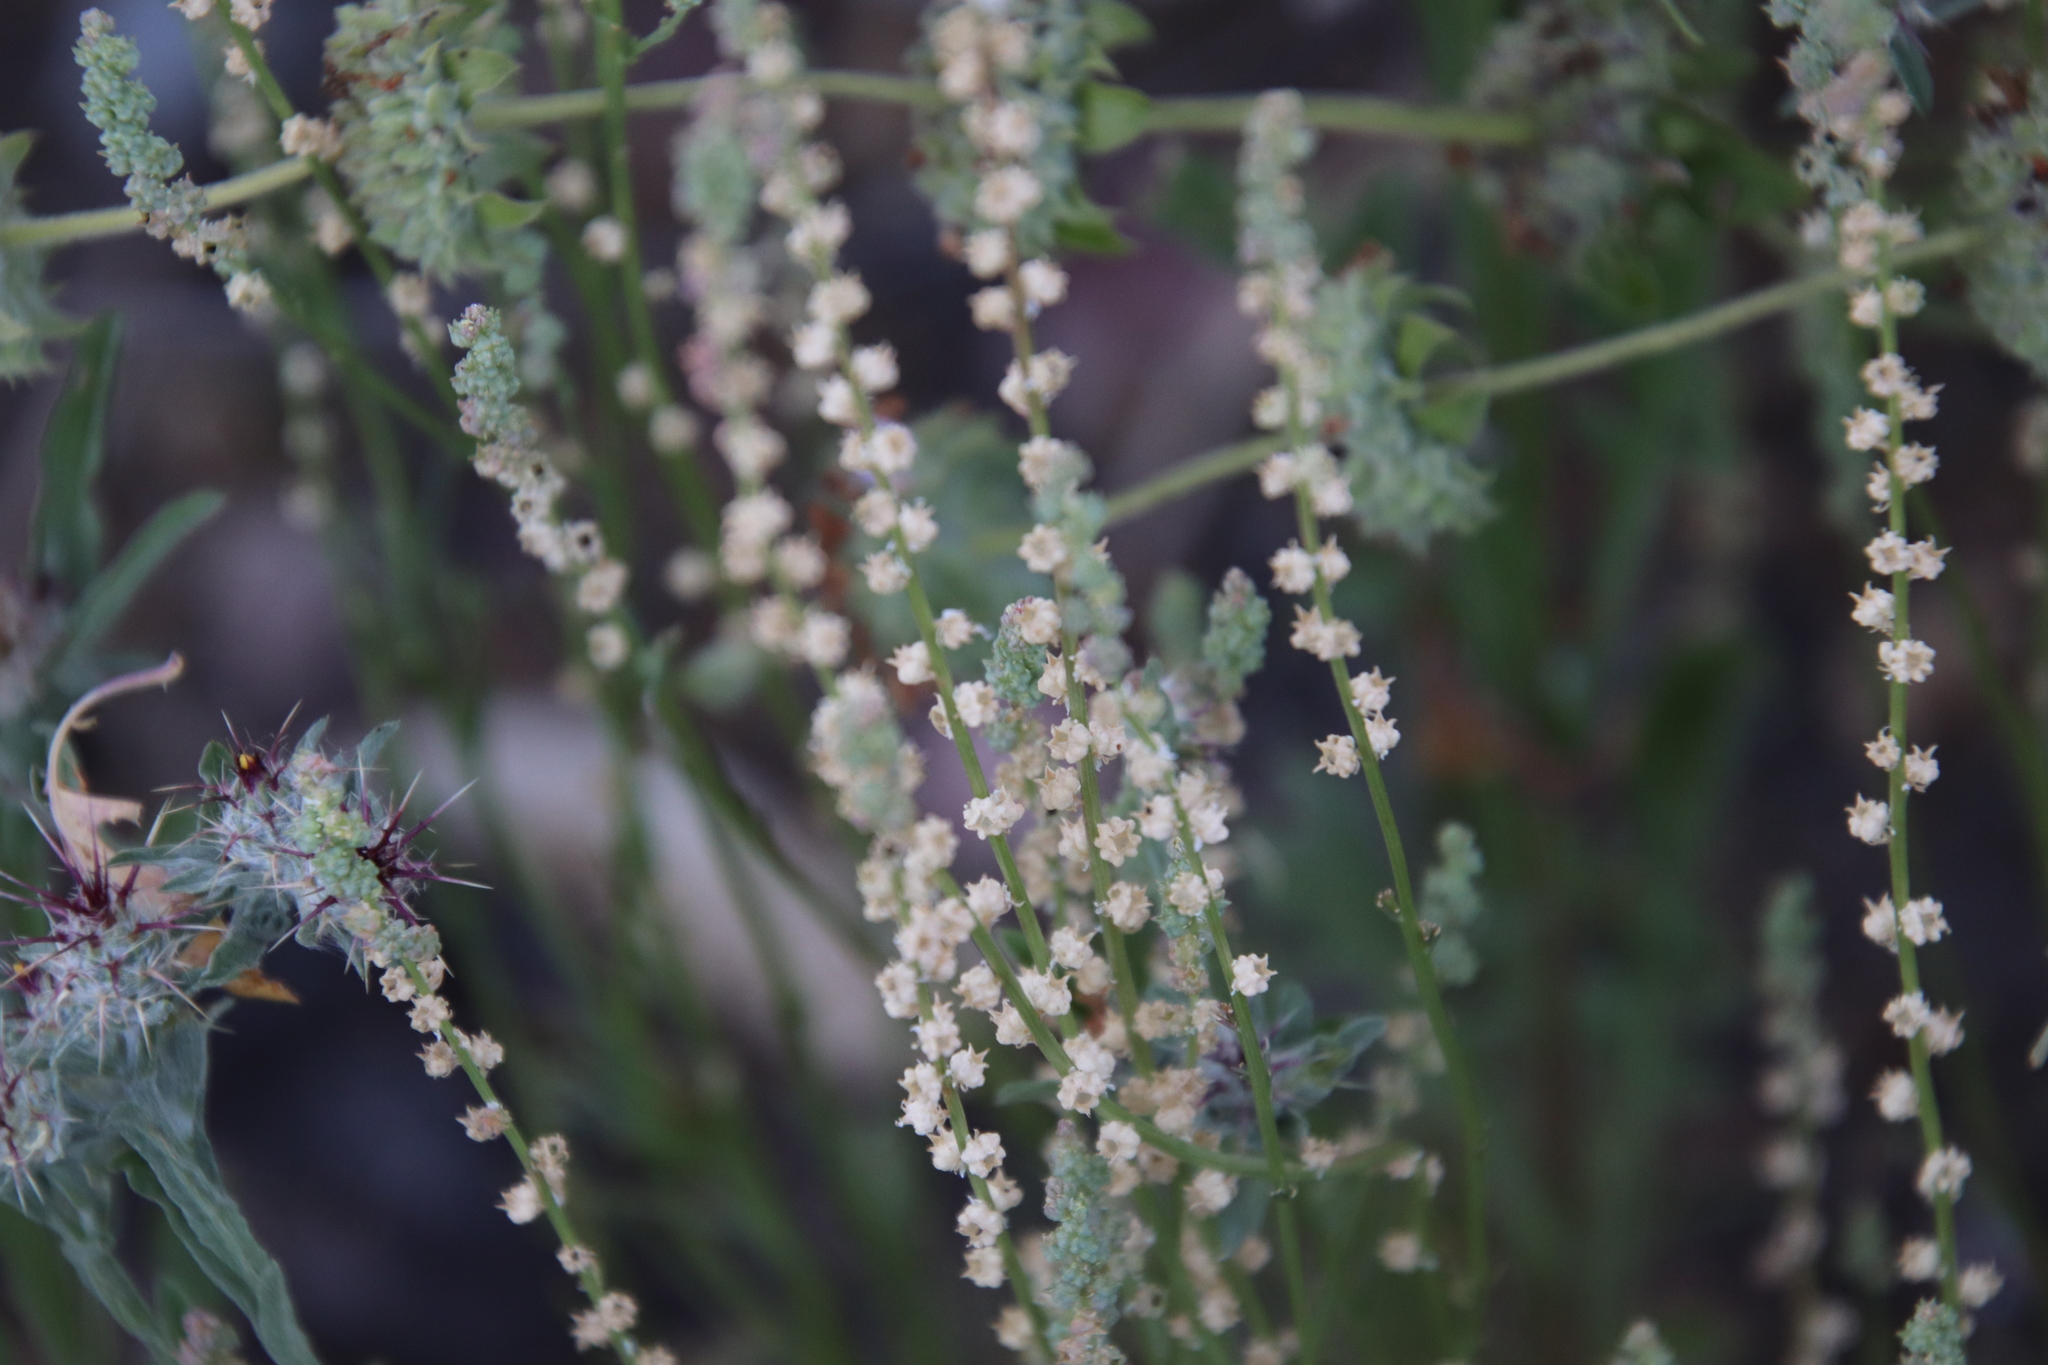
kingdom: Plantae
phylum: Tracheophyta
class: Magnoliopsida
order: Brassicales
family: Resedaceae
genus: Oligomeris
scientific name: Oligomeris linifolia
